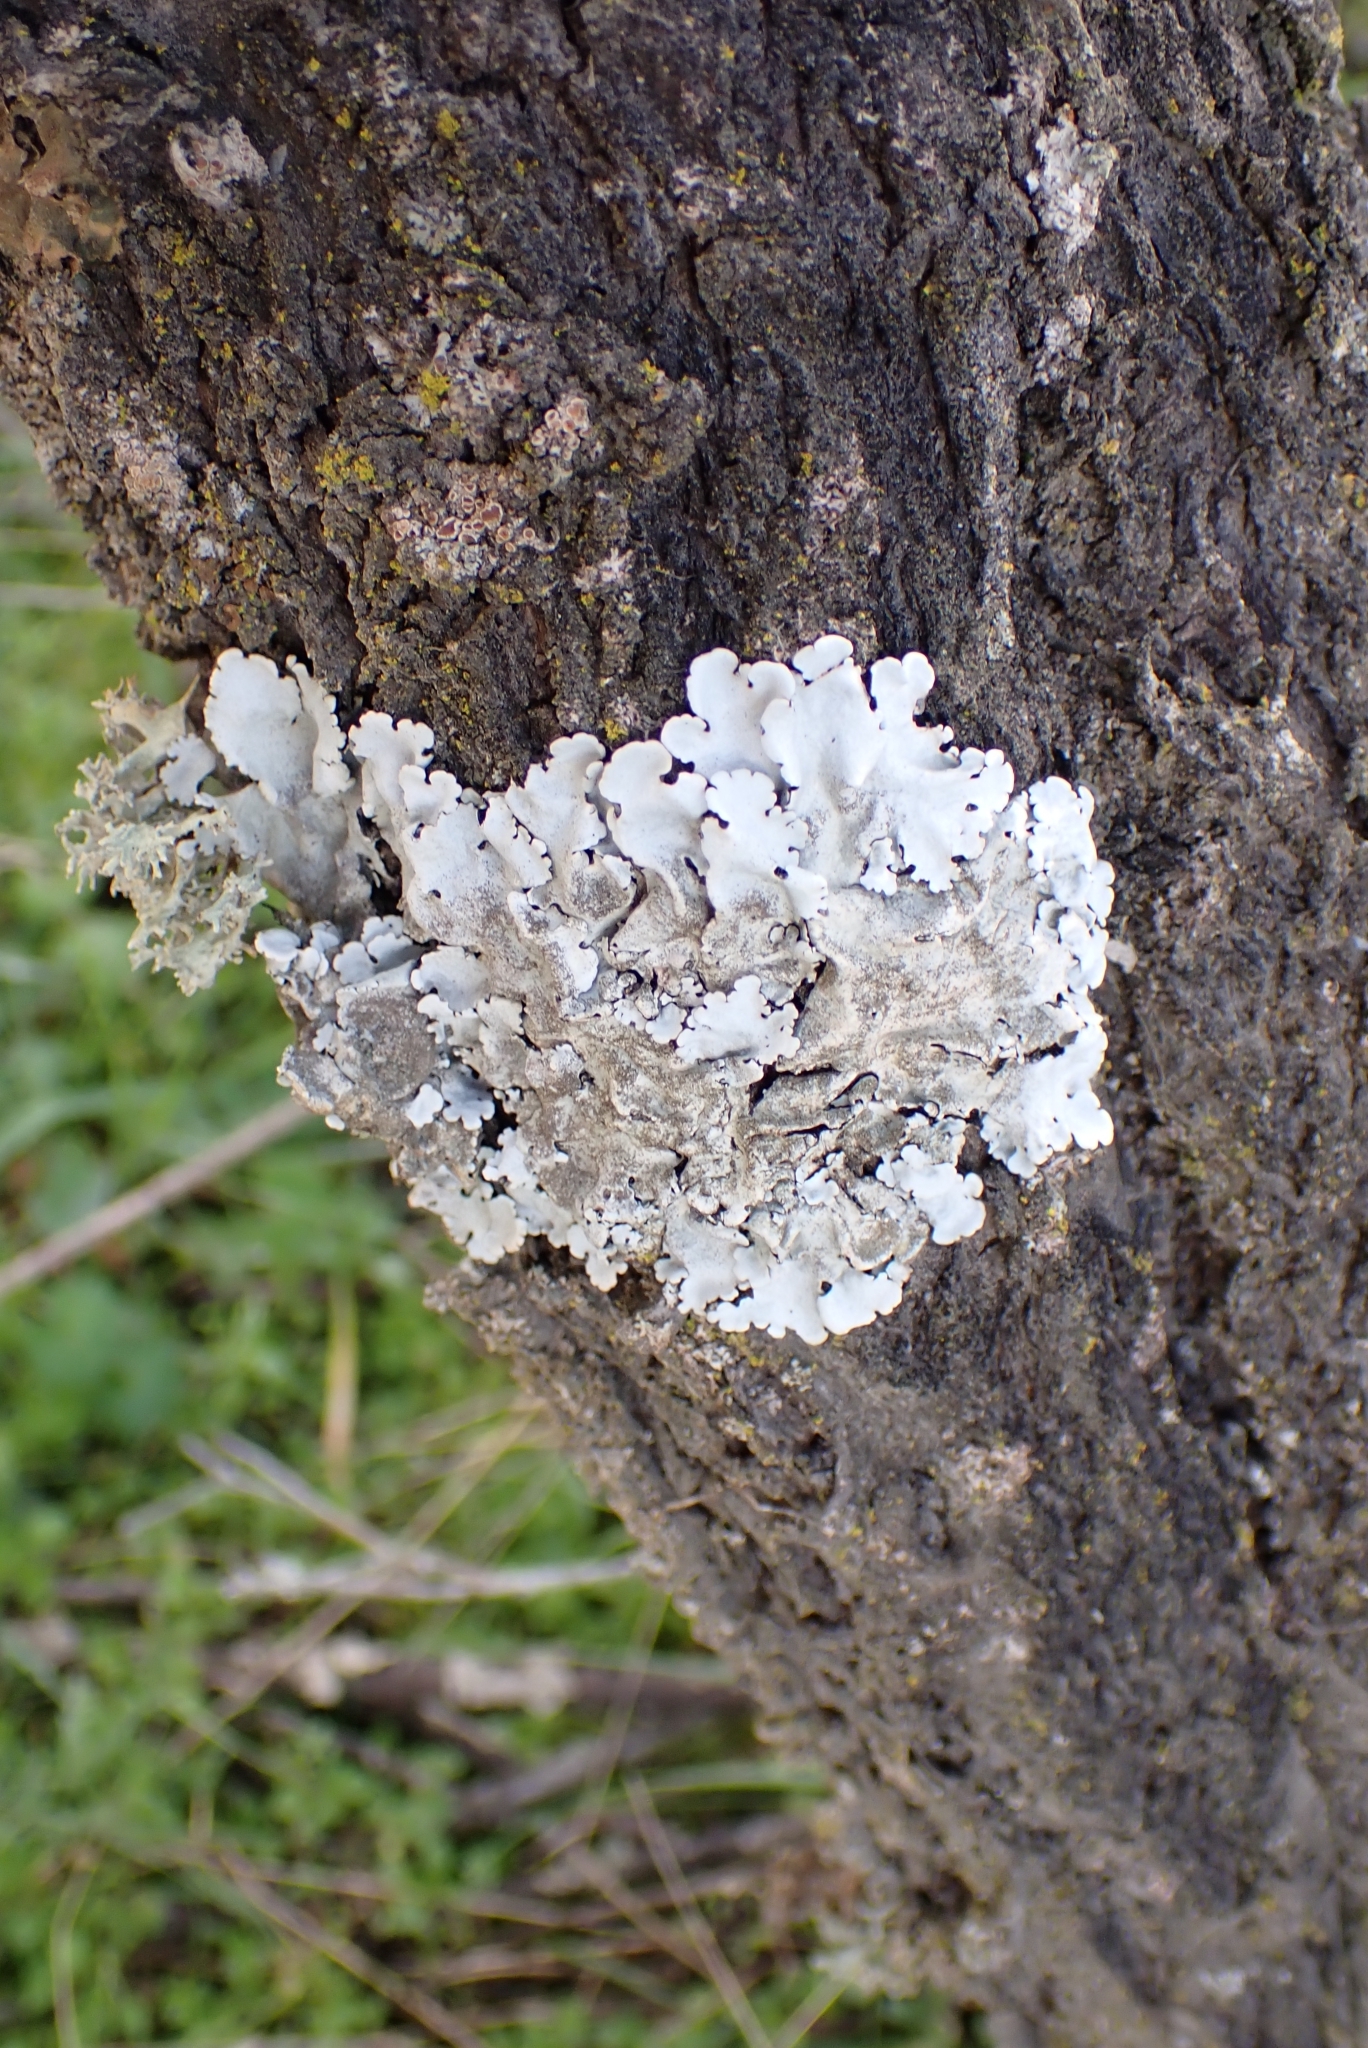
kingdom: Fungi
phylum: Ascomycota
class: Lecanoromycetes
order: Lecanorales
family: Parmeliaceae
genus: Parmelina
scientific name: Parmelina tiliacea
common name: Linden shield lichen
